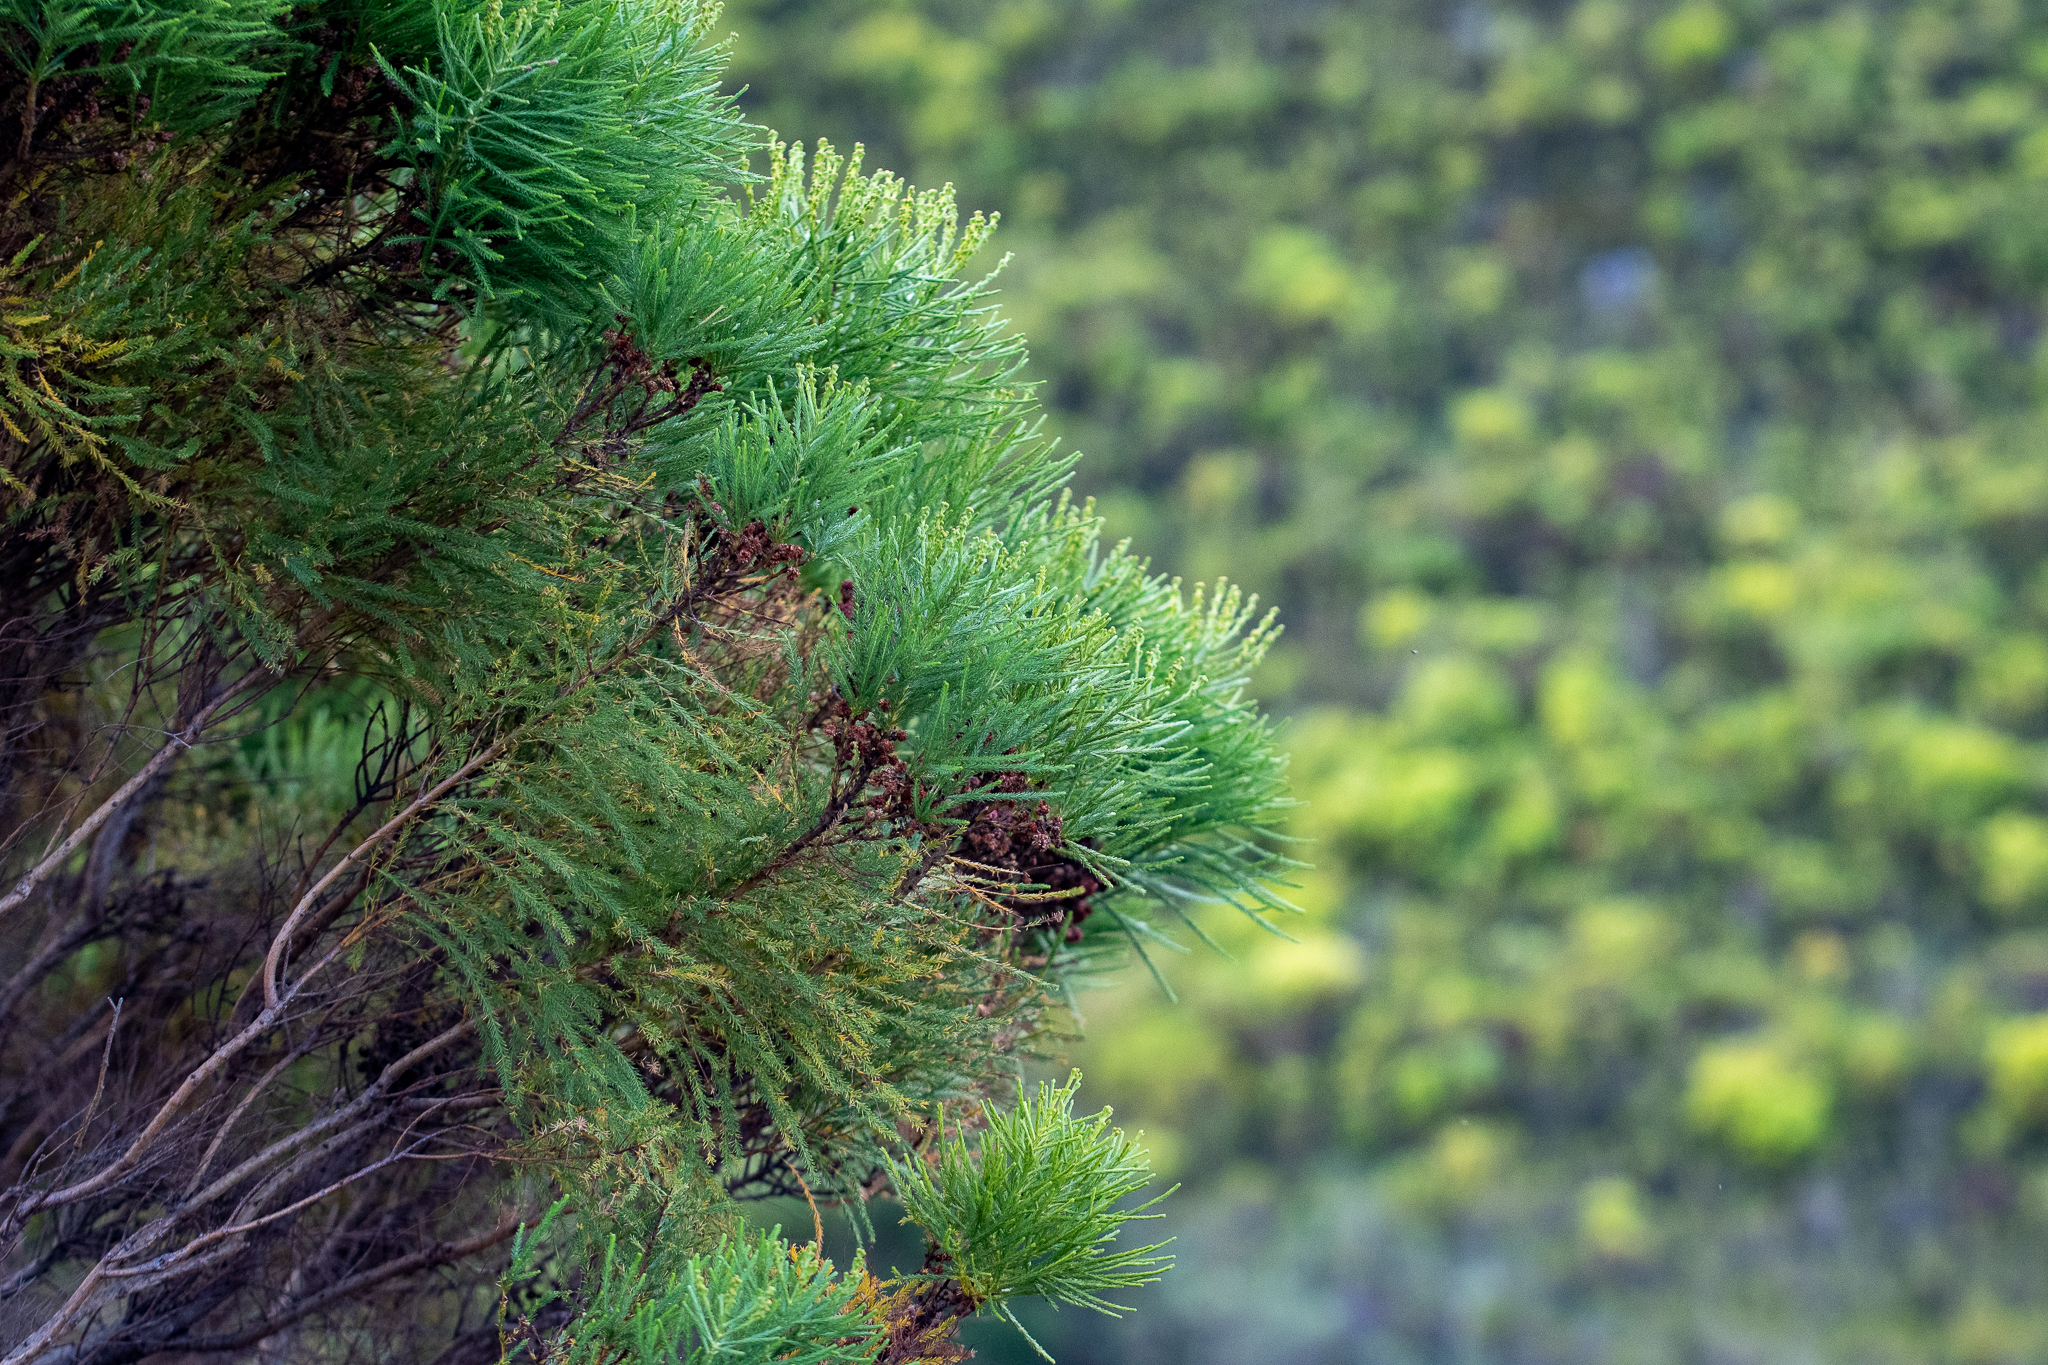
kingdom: Plantae
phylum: Tracheophyta
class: Magnoliopsida
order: Bruniales
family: Bruniaceae
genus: Berzelia
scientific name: Berzelia lanuginosa
